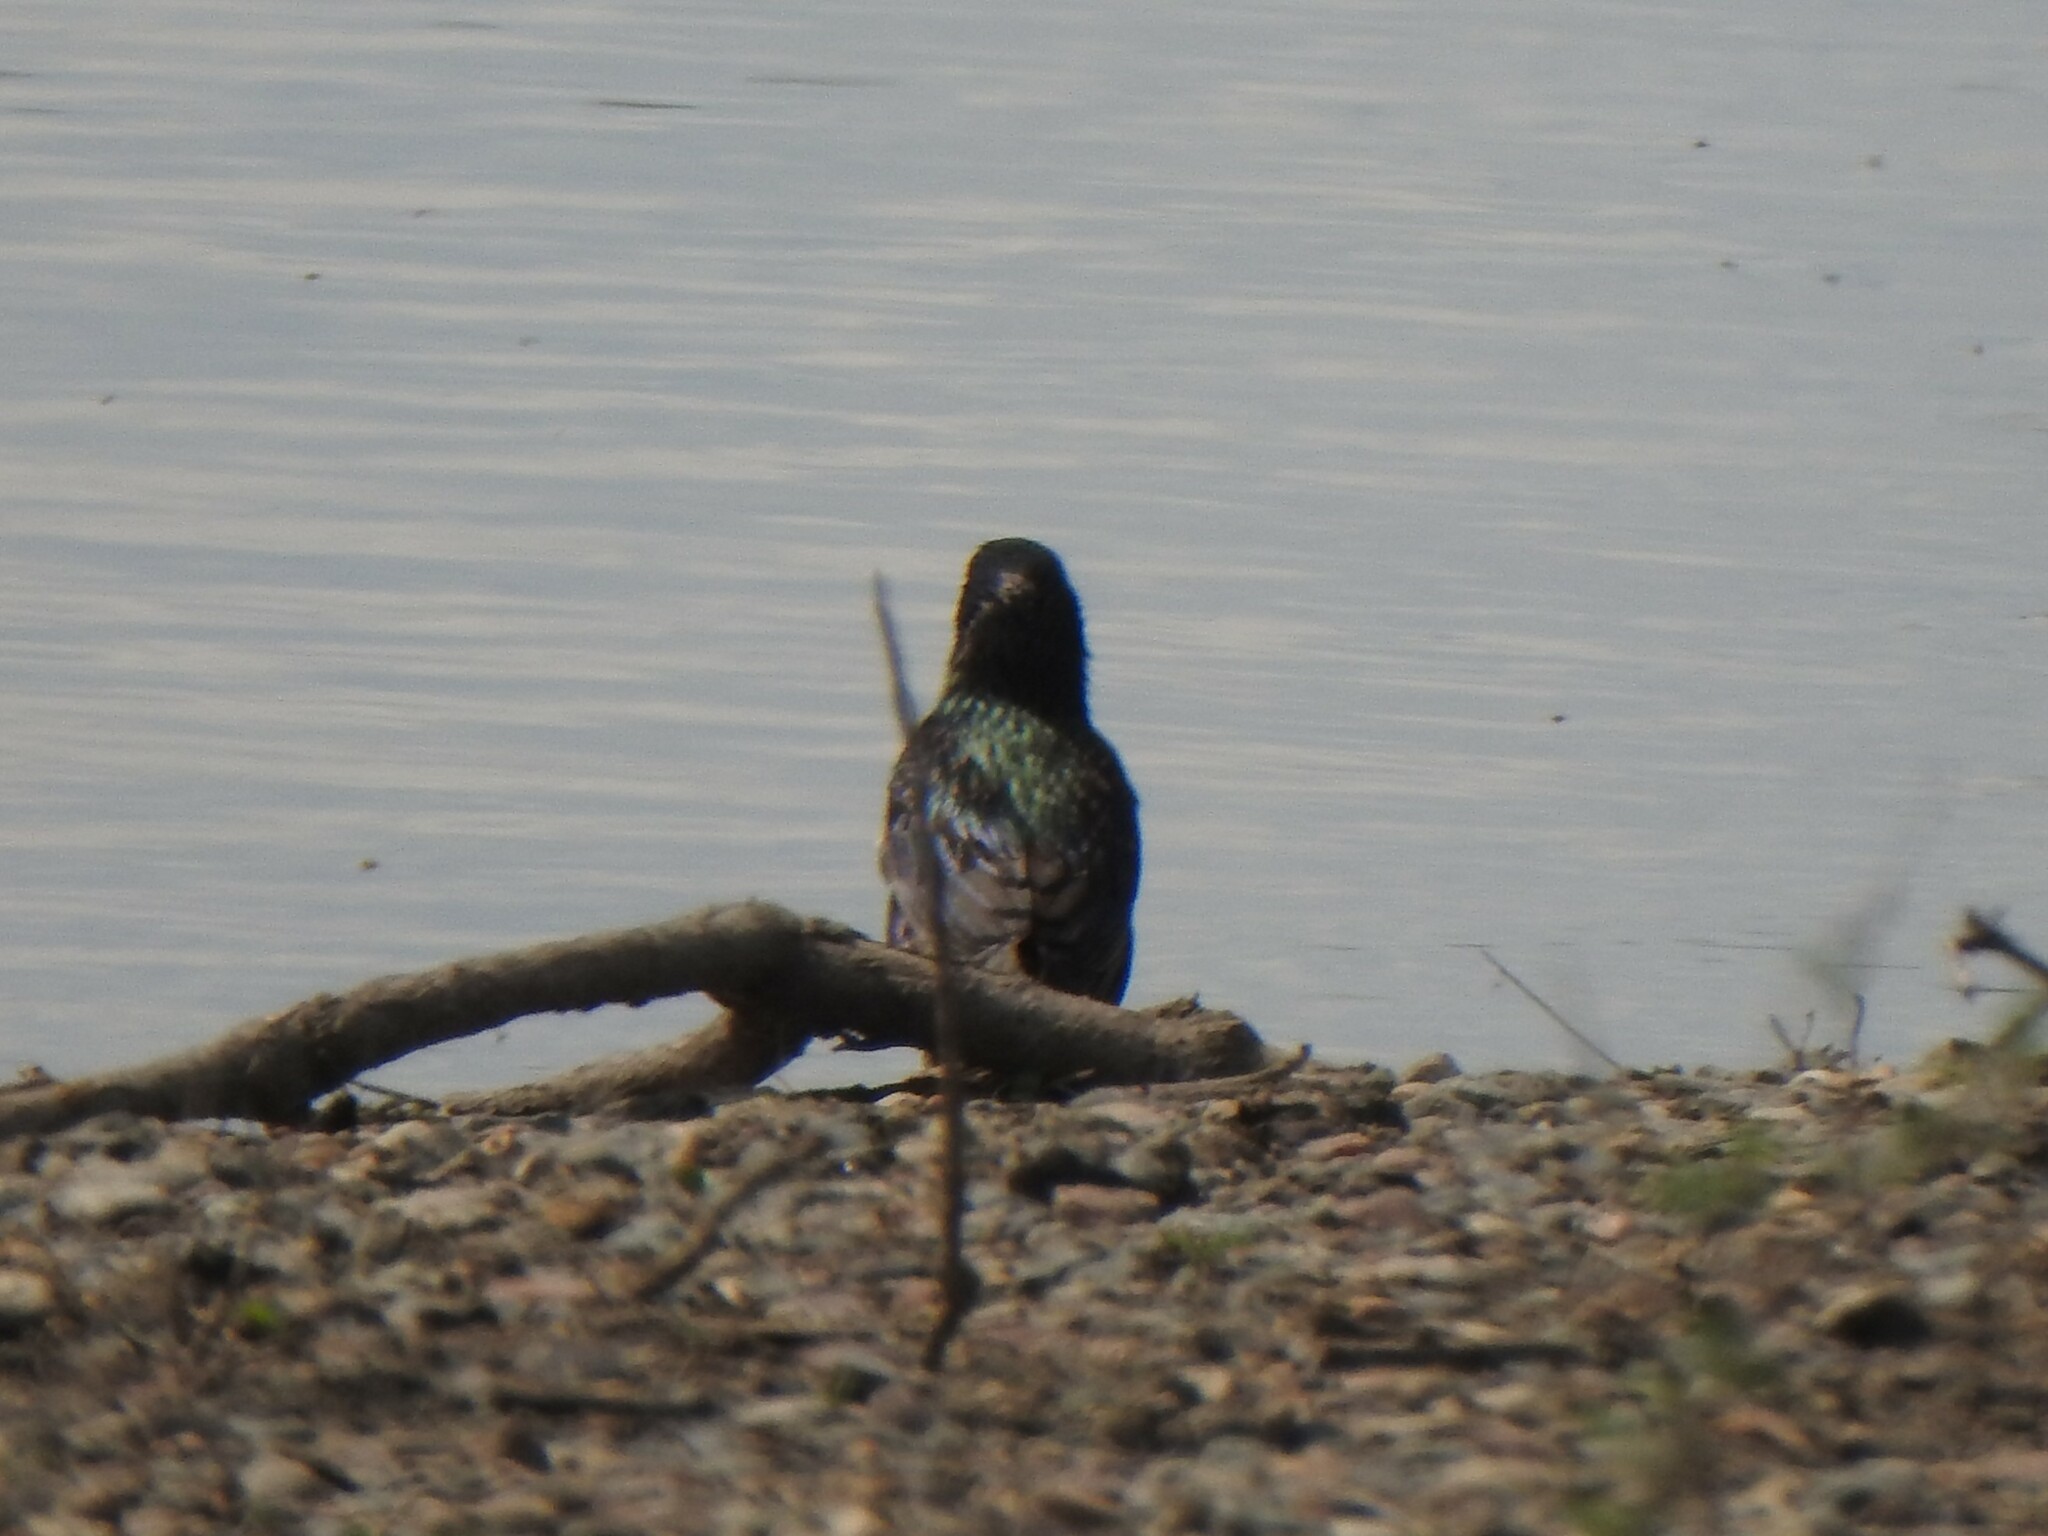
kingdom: Animalia
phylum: Chordata
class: Aves
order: Passeriformes
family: Sturnidae
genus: Sturnus
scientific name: Sturnus vulgaris
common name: Common starling
